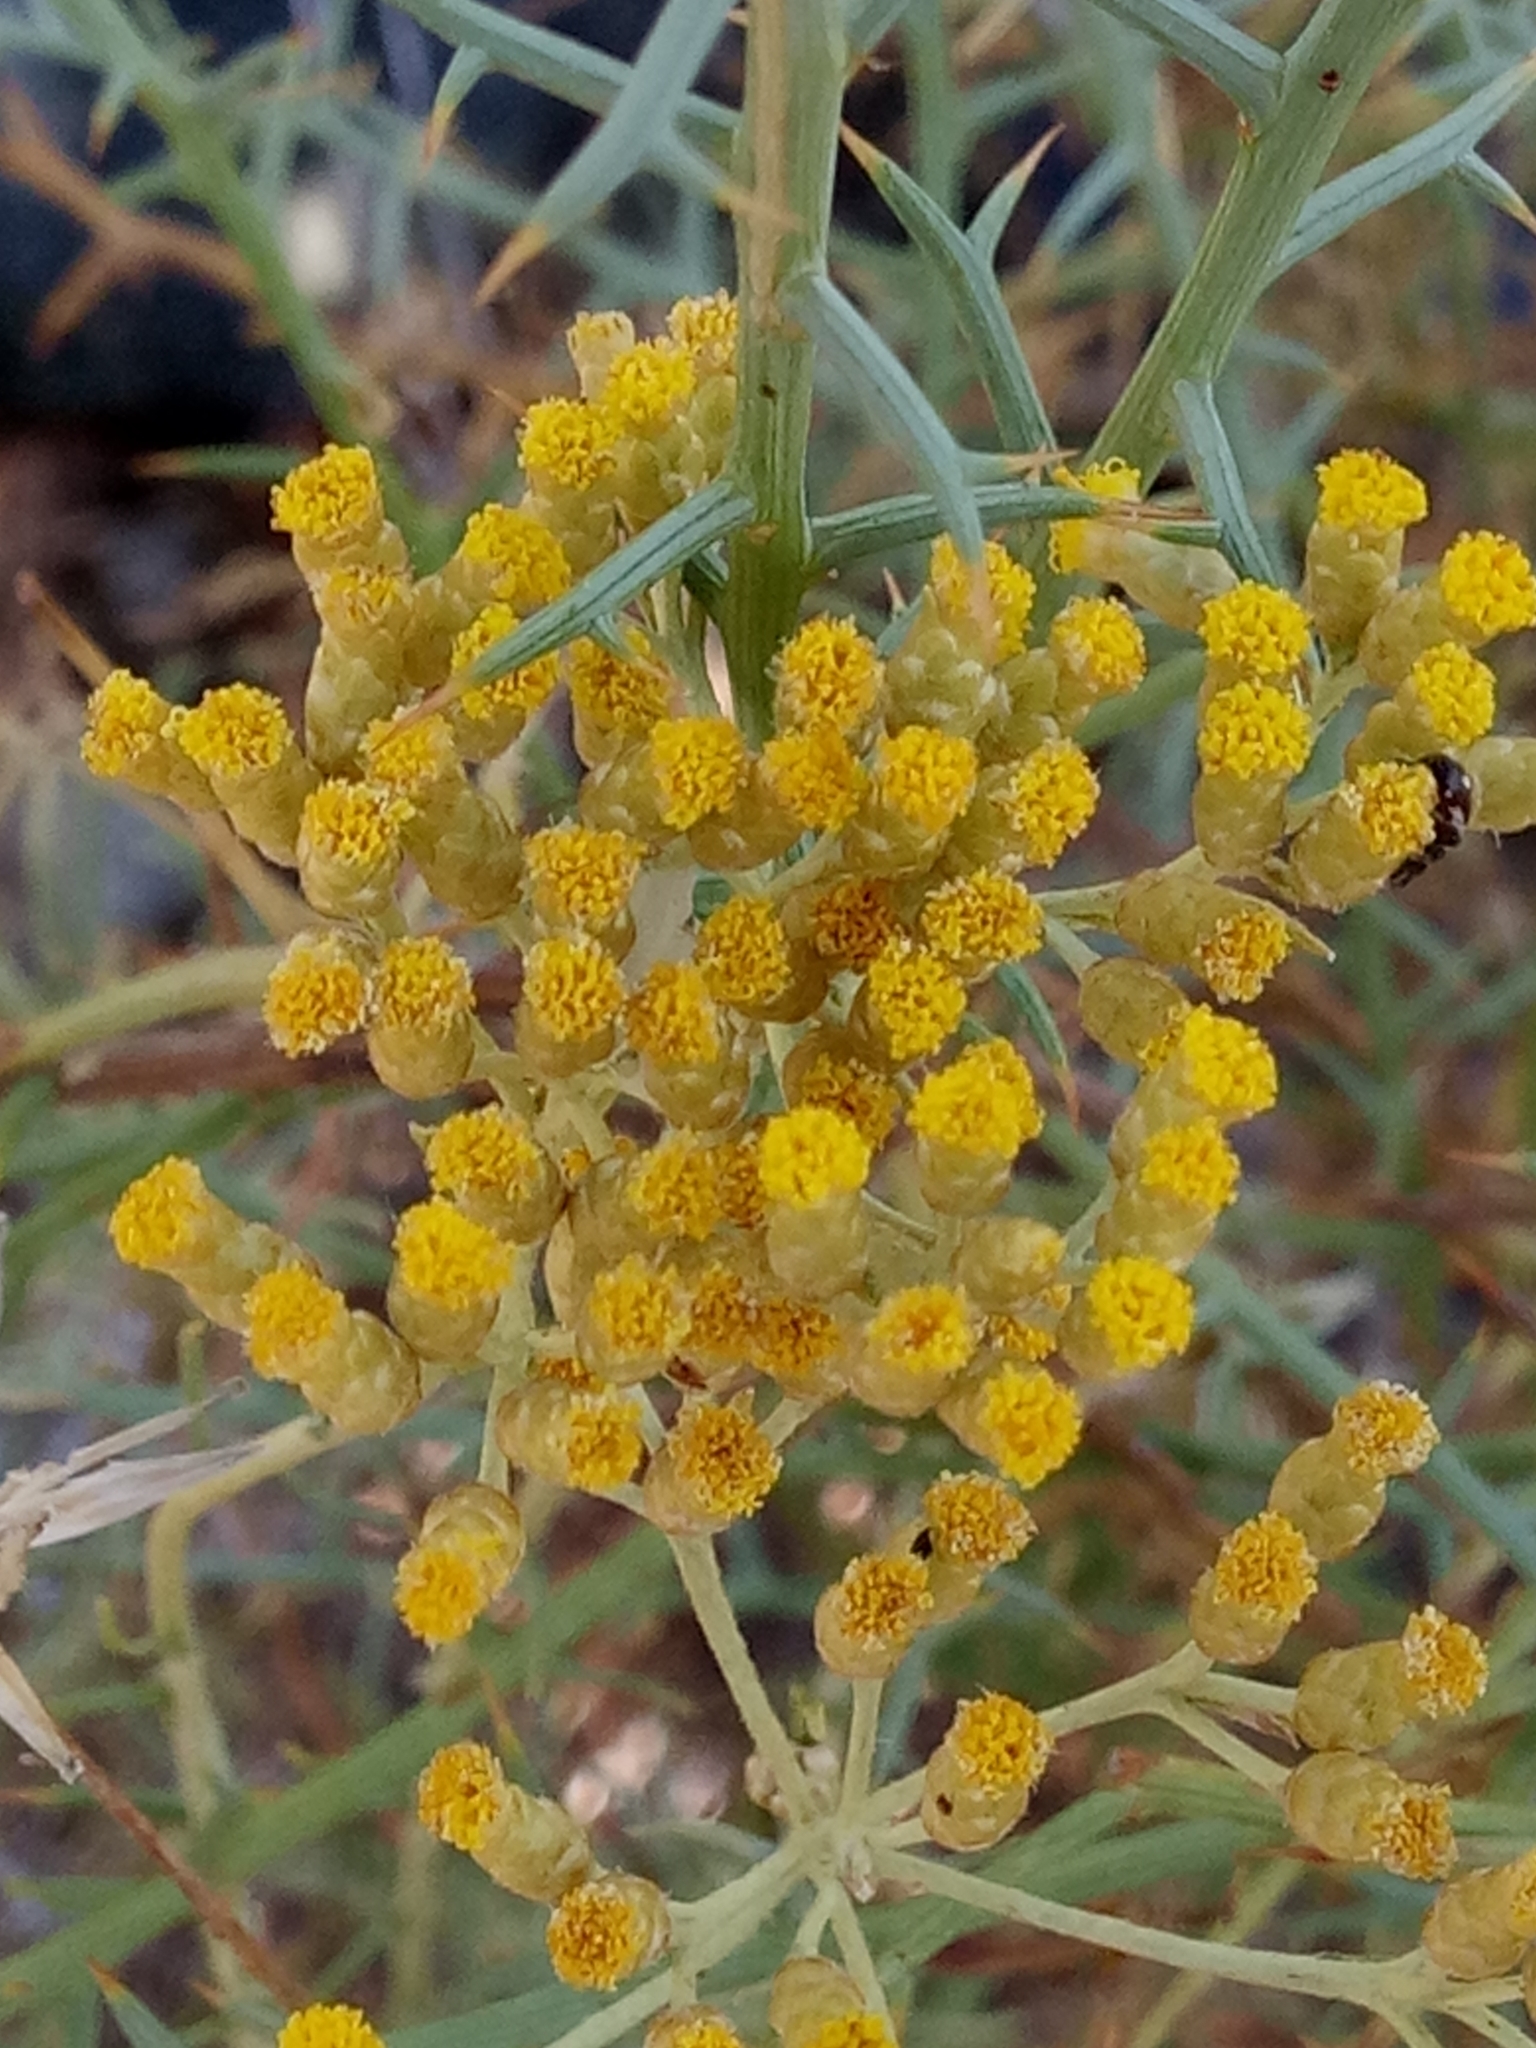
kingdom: Plantae
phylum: Tracheophyta
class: Magnoliopsida
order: Asterales
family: Asteraceae
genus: Helichrysum
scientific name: Helichrysum italicum
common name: Curryplant
